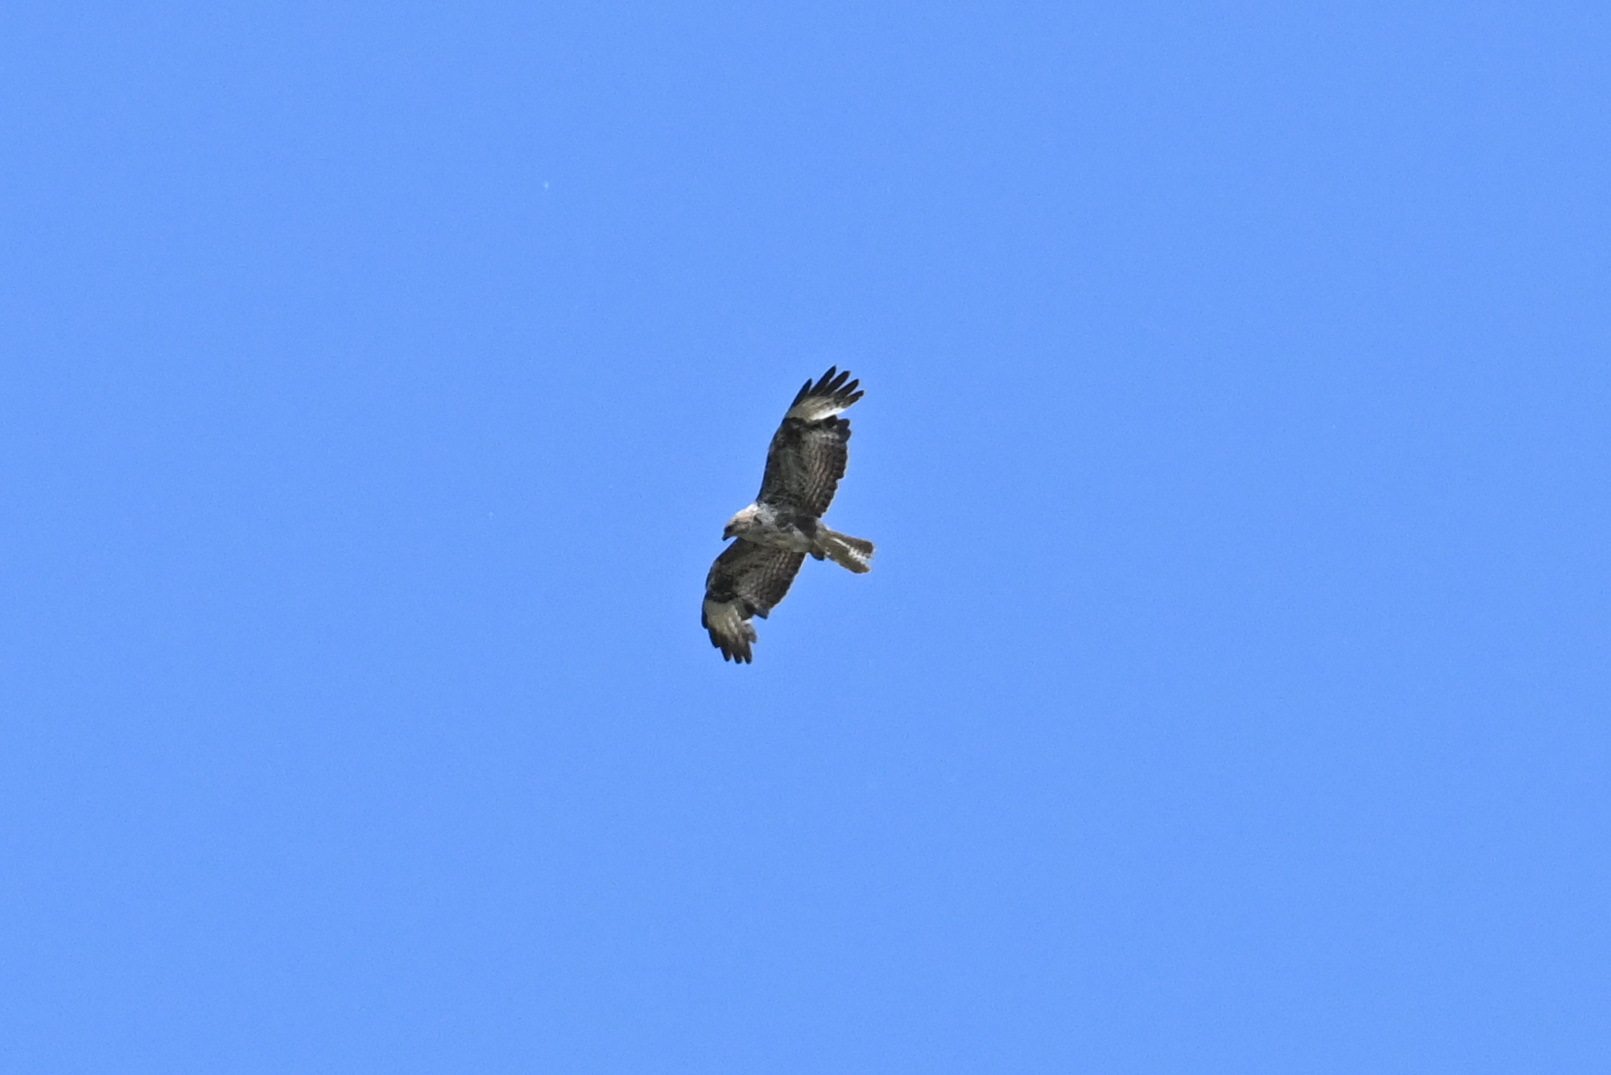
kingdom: Animalia
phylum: Chordata
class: Aves
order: Accipitriformes
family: Accipitridae
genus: Buteo
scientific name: Buteo buteo
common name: Common buzzard
